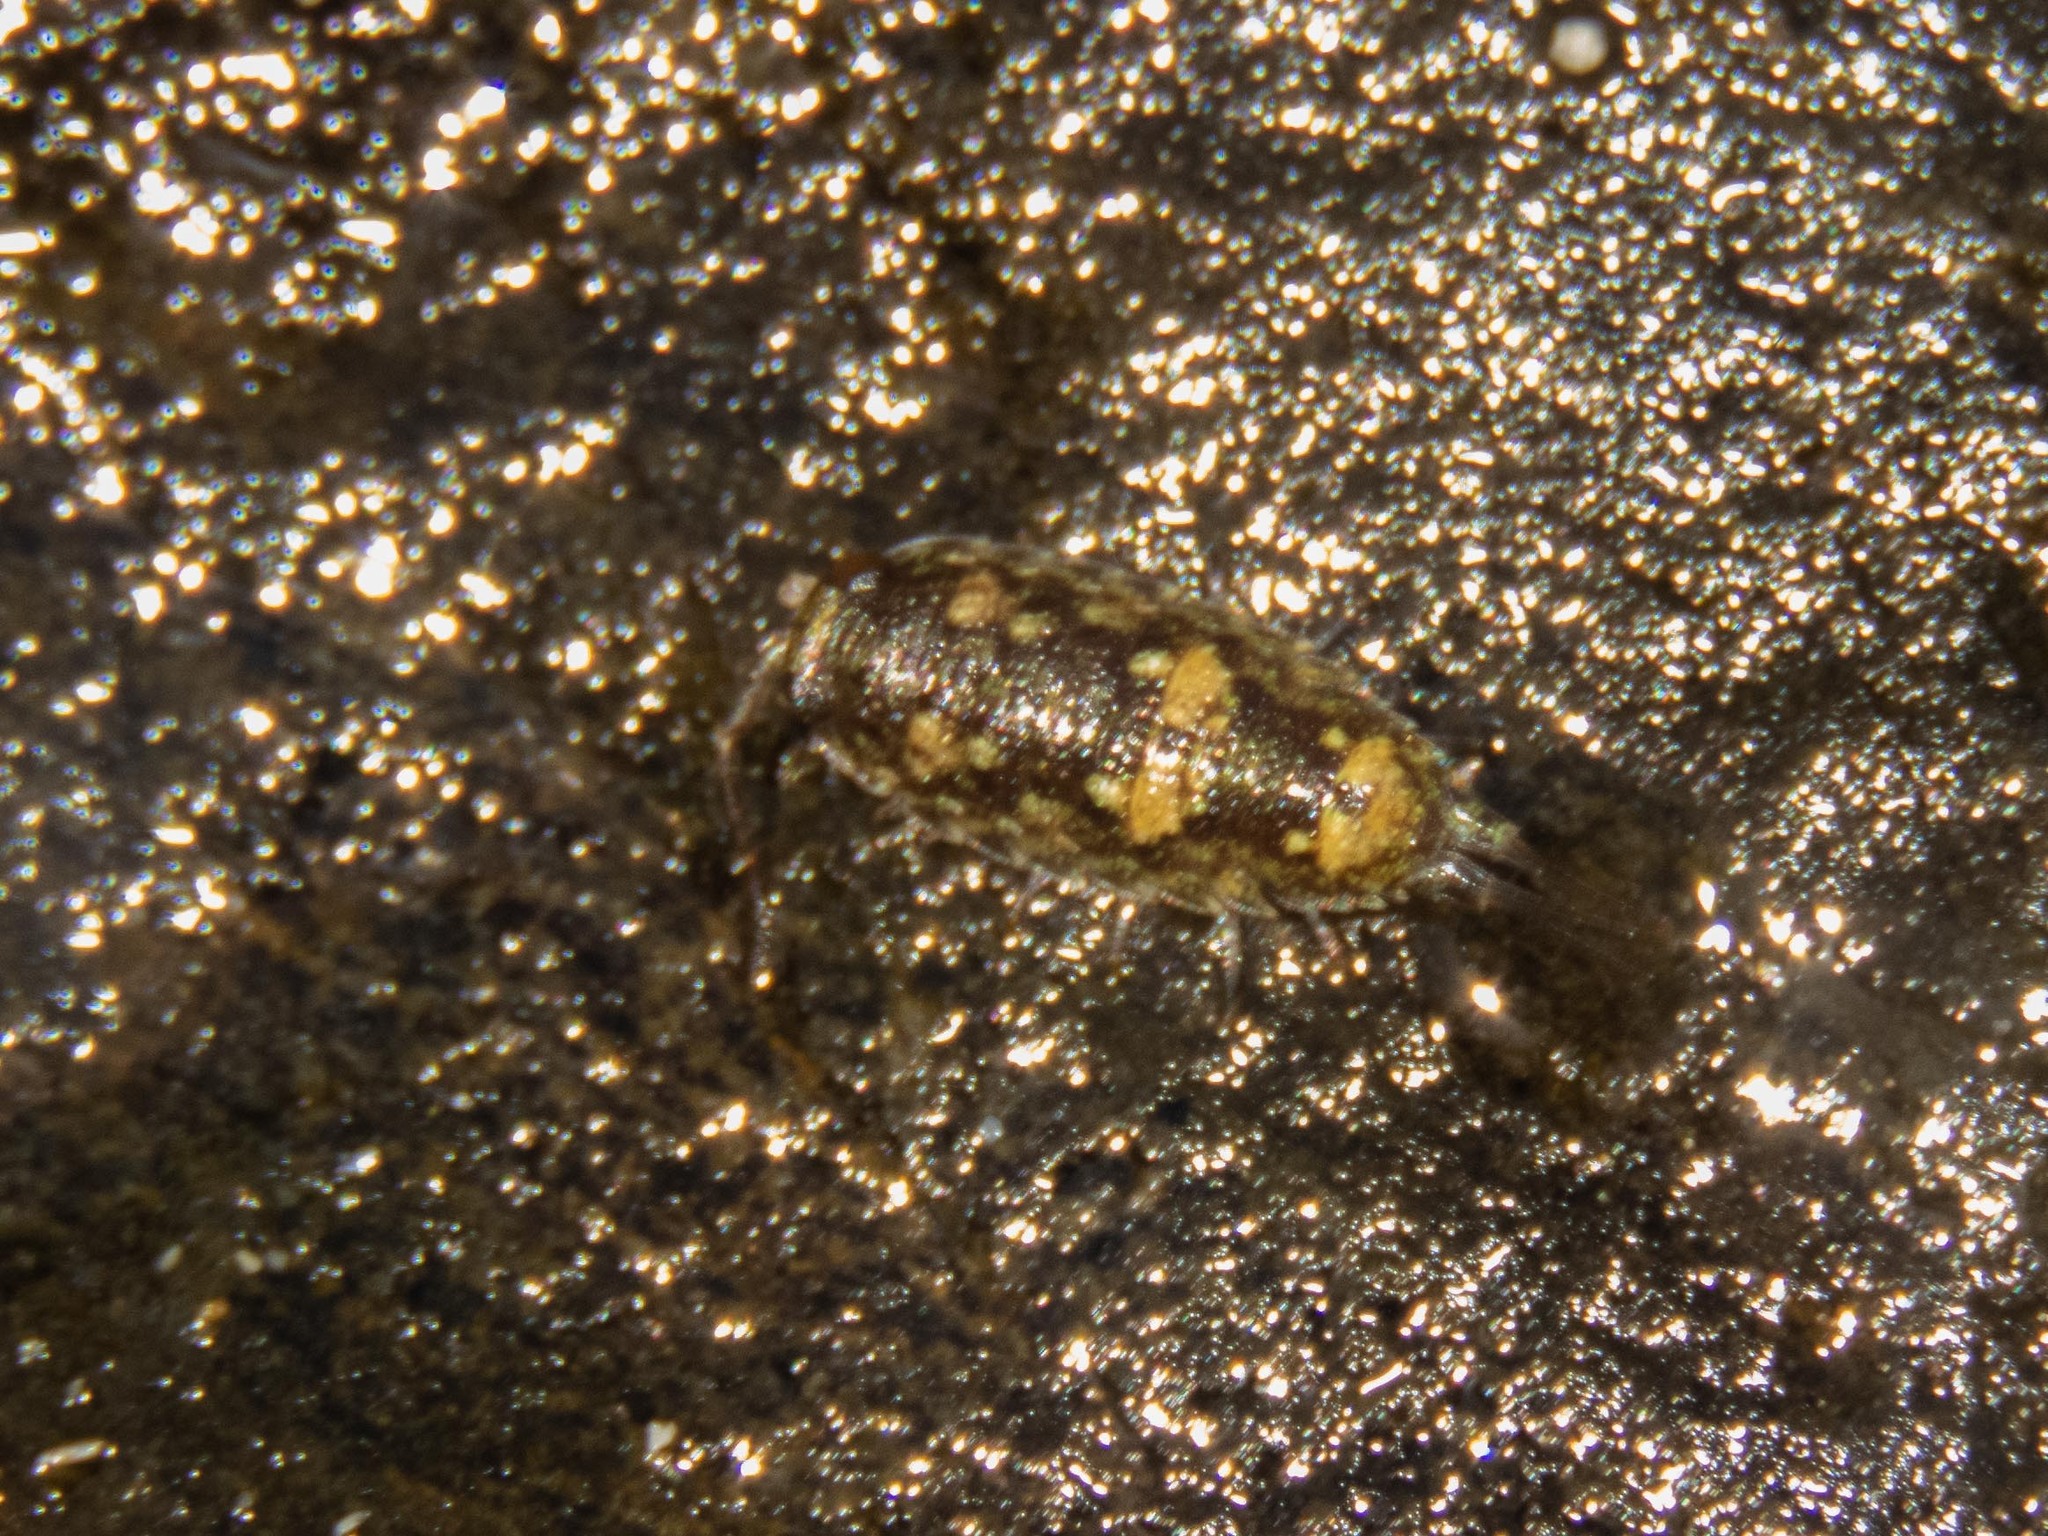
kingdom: Animalia
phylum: Arthropoda
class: Malacostraca
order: Isopoda
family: Ligiidae
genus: Ligia
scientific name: Ligia oceanica
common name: Sea slater
